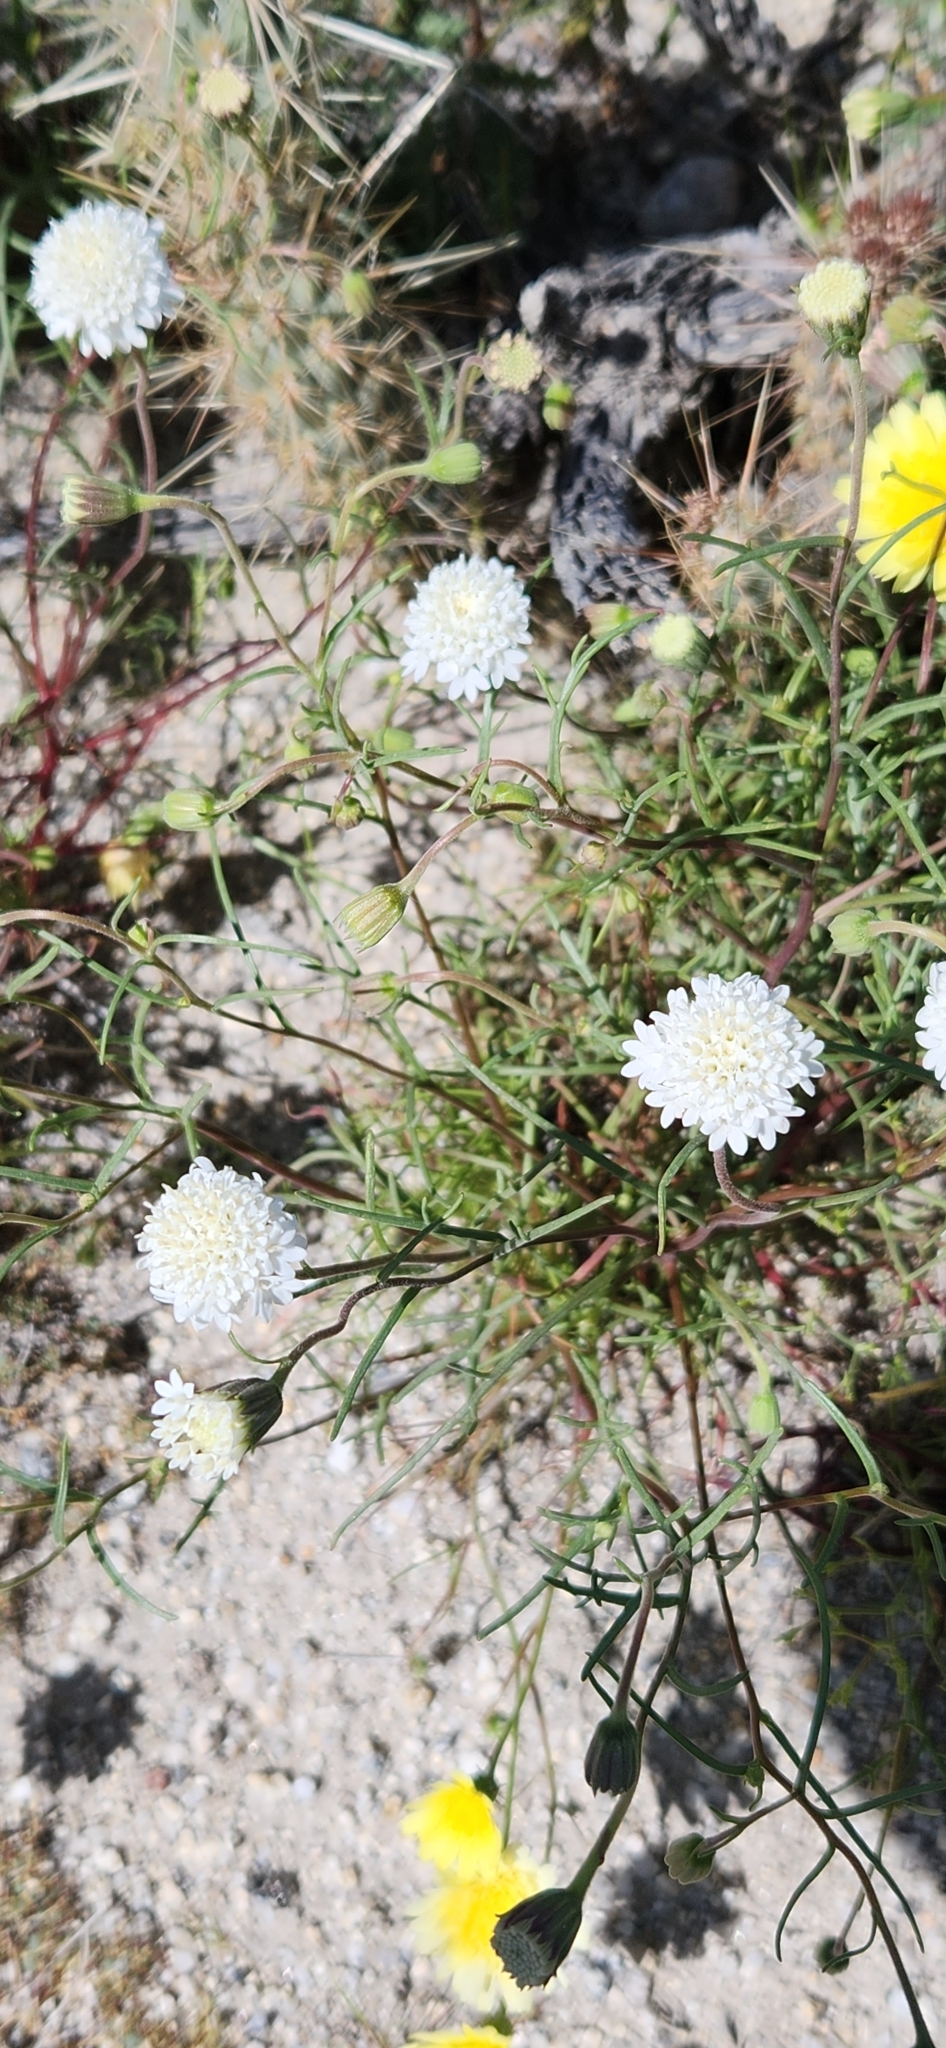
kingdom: Plantae
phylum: Tracheophyta
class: Magnoliopsida
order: Asterales
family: Asteraceae
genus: Chaenactis
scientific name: Chaenactis fremontii
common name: Fremont pincushion
